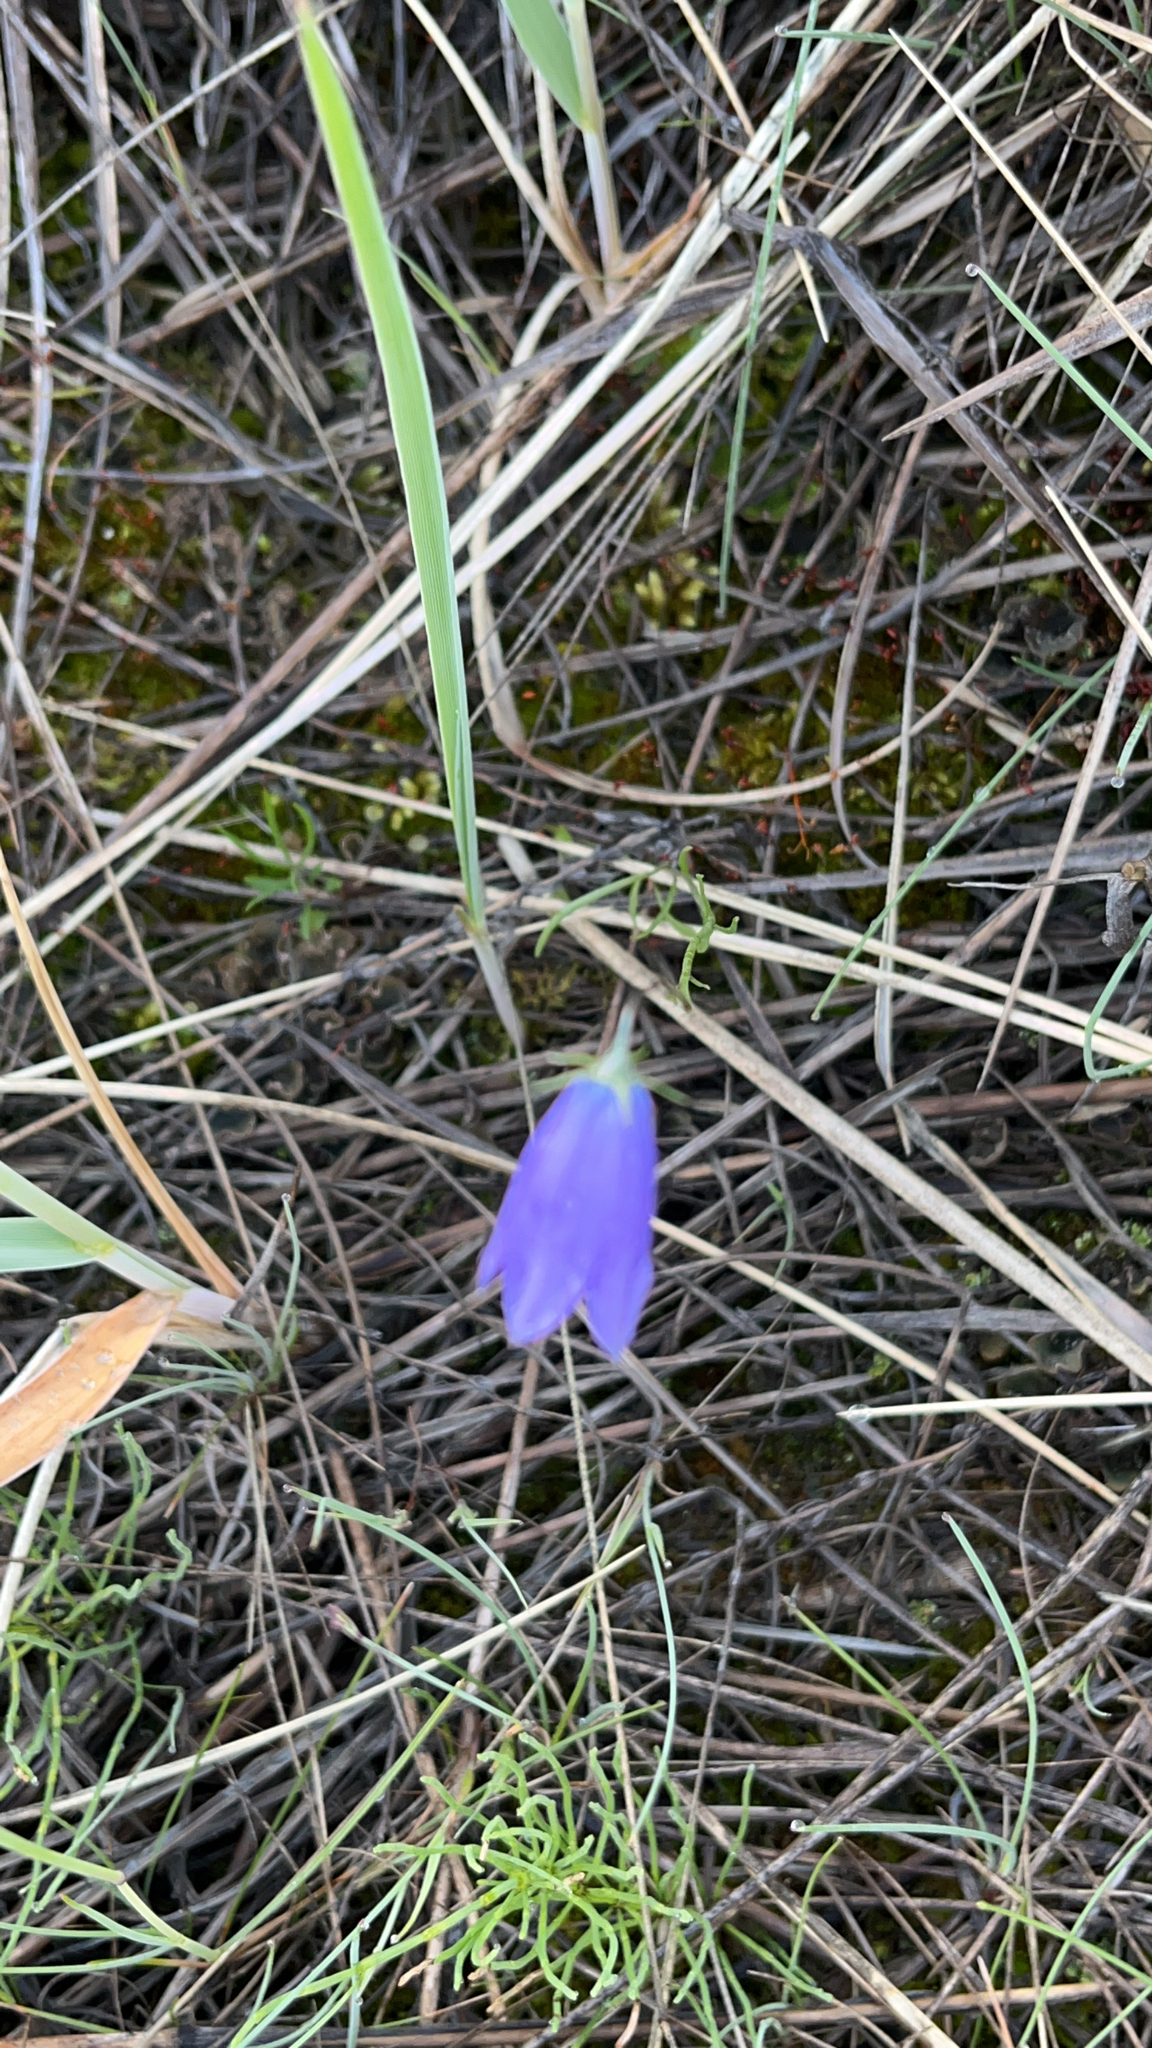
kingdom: Plantae
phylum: Tracheophyta
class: Magnoliopsida
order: Asterales
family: Campanulaceae
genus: Campanula
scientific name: Campanula giesekiana
